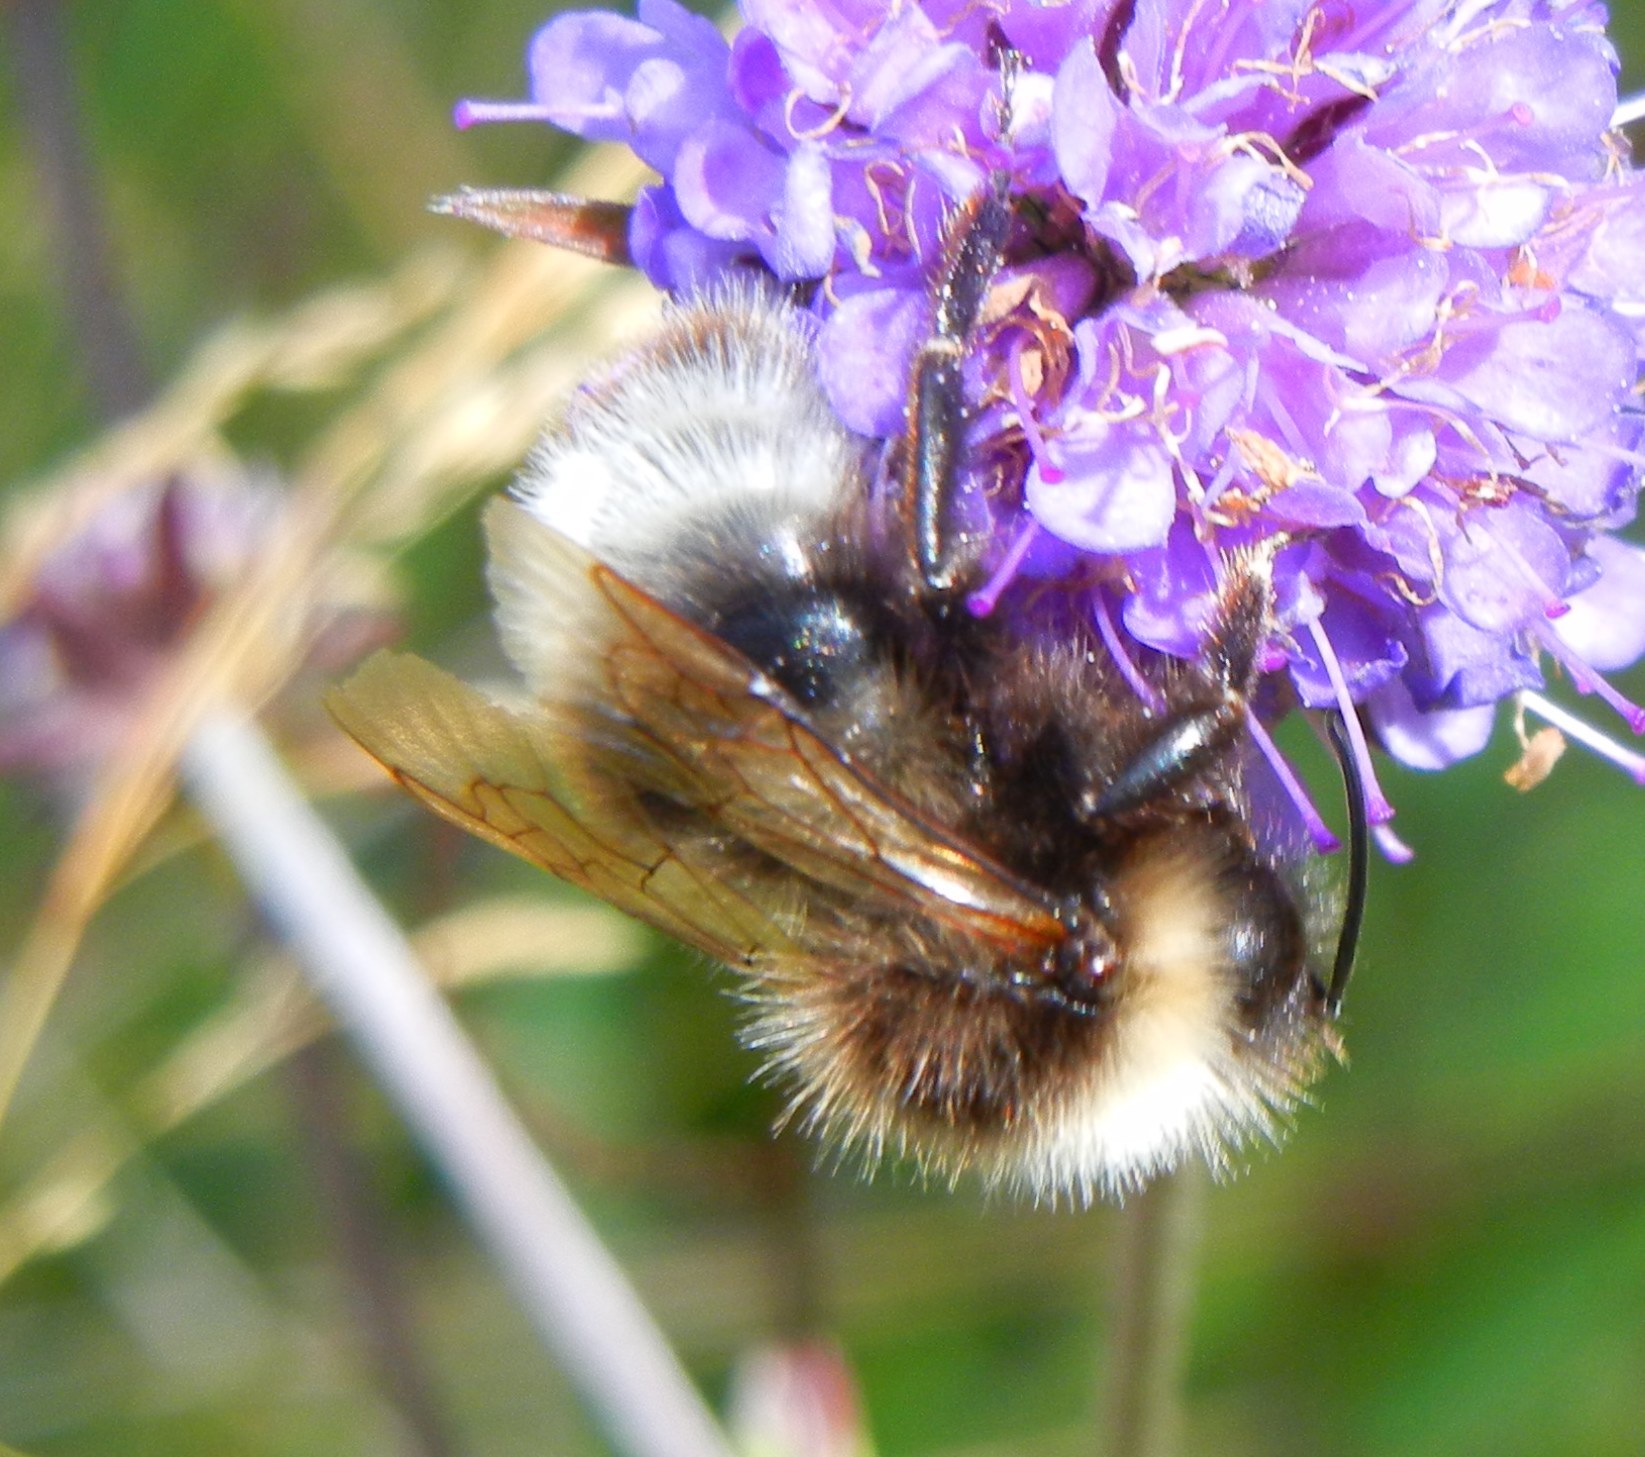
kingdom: Animalia
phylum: Arthropoda
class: Insecta
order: Hymenoptera
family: Apidae
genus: Bombus
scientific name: Bombus sylvestris
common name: Forest cuckoo bee
